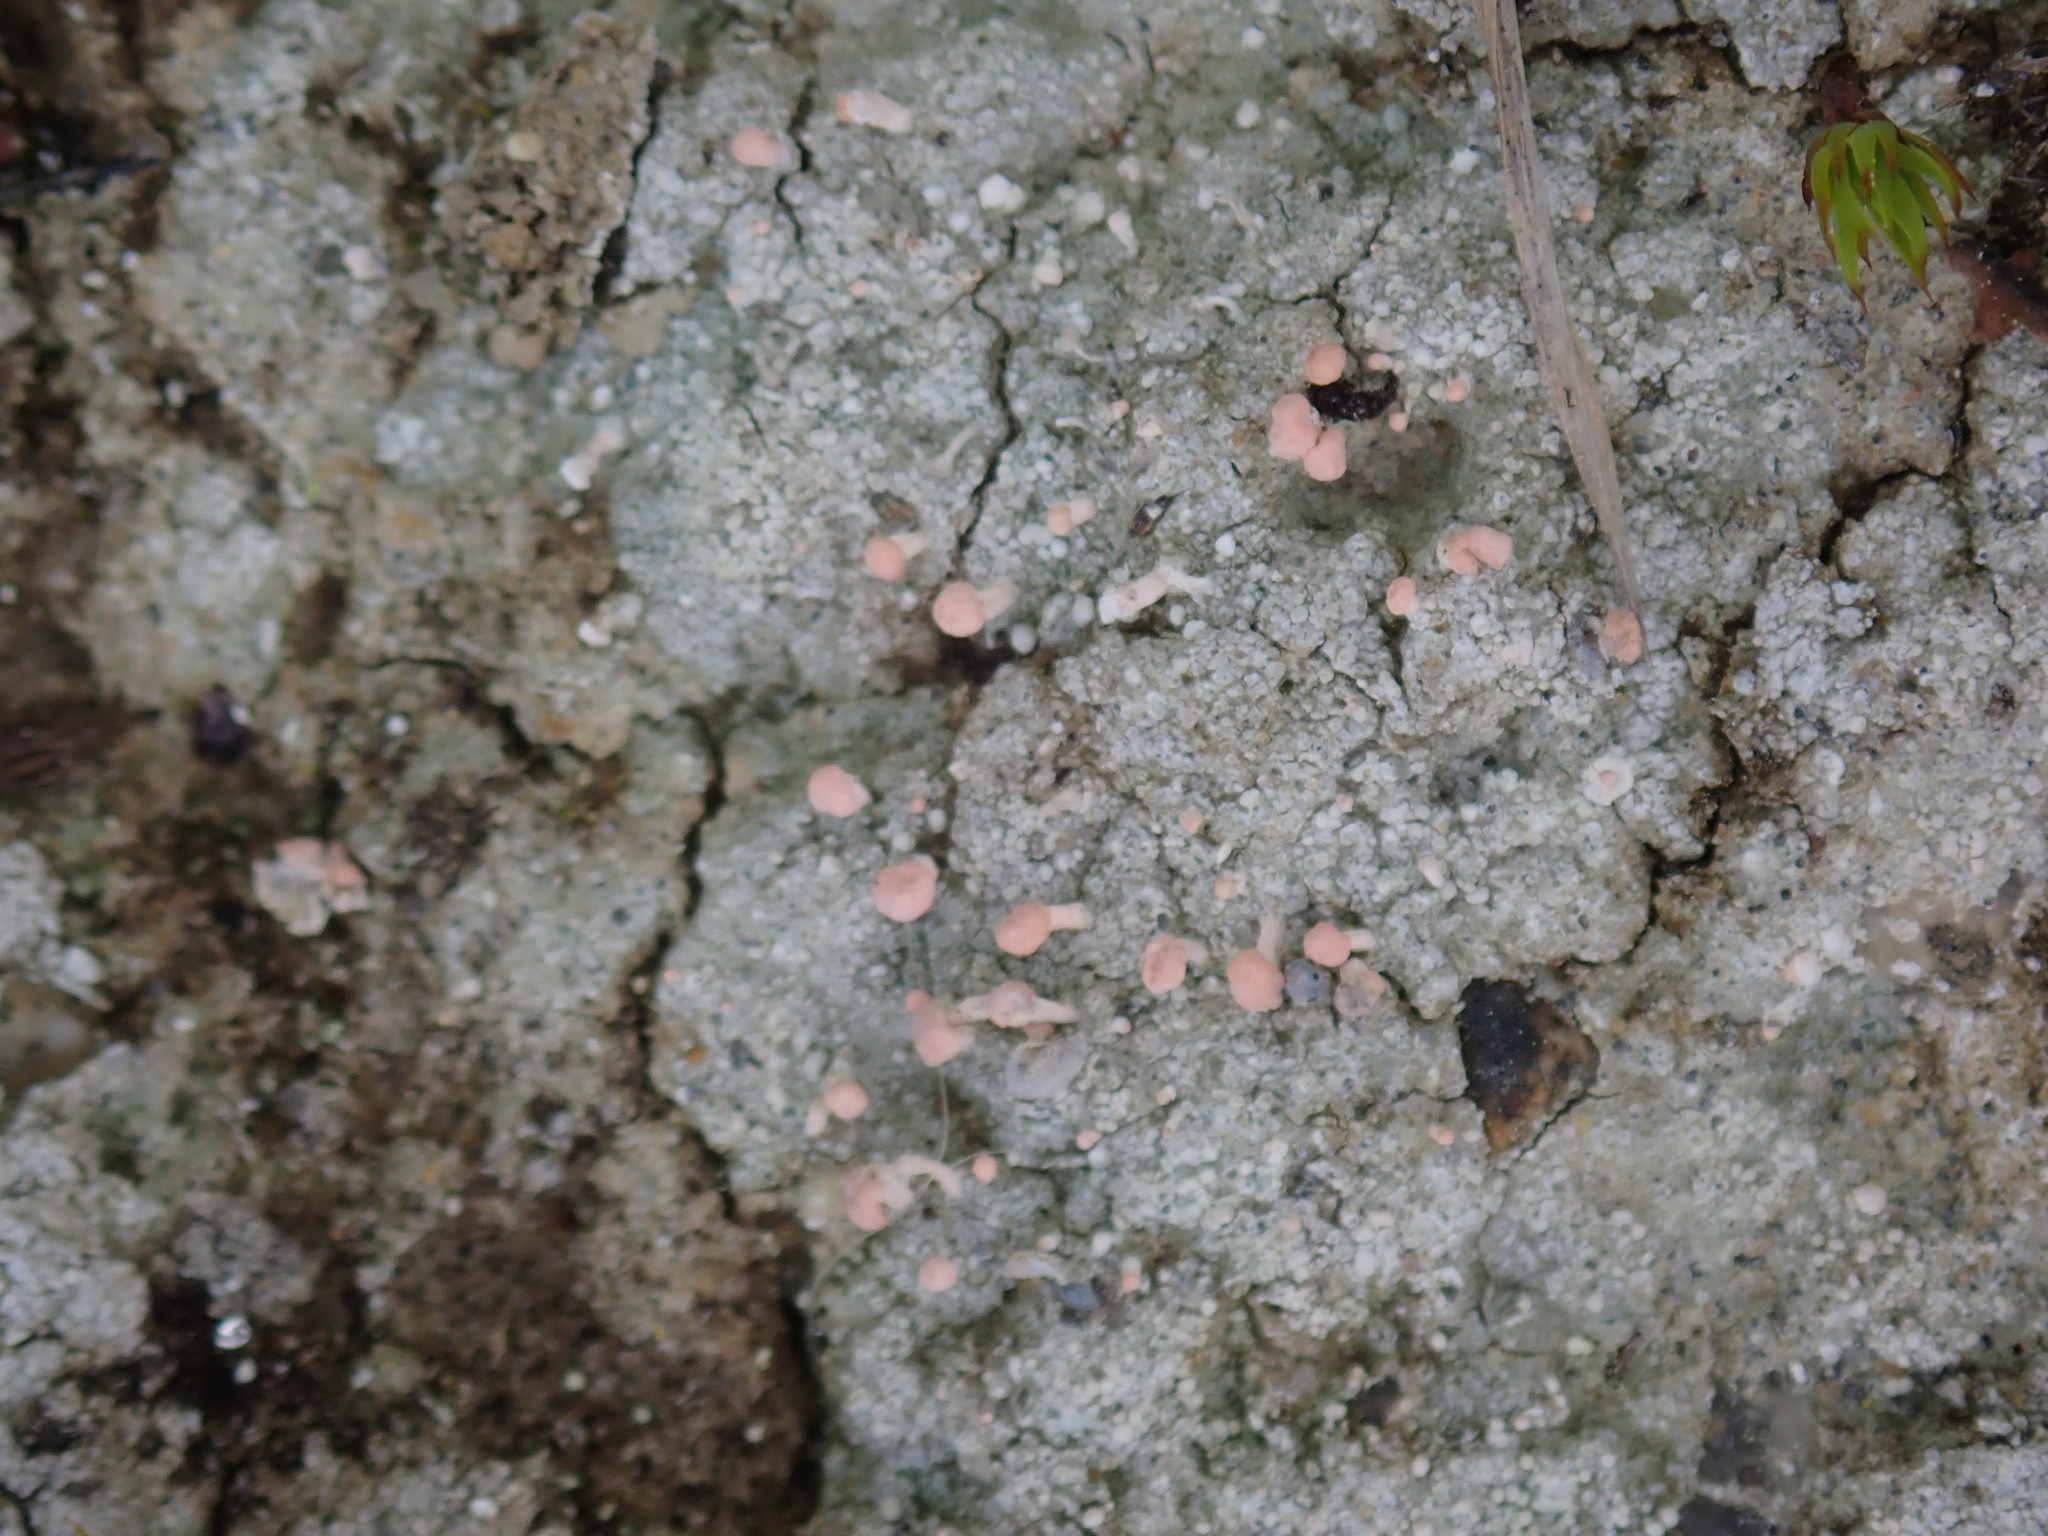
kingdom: Fungi
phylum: Ascomycota
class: Lecanoromycetes
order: Pertusariales
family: Icmadophilaceae
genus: Dibaeis
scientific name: Dibaeis baeomyces
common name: Pink earth lichen
